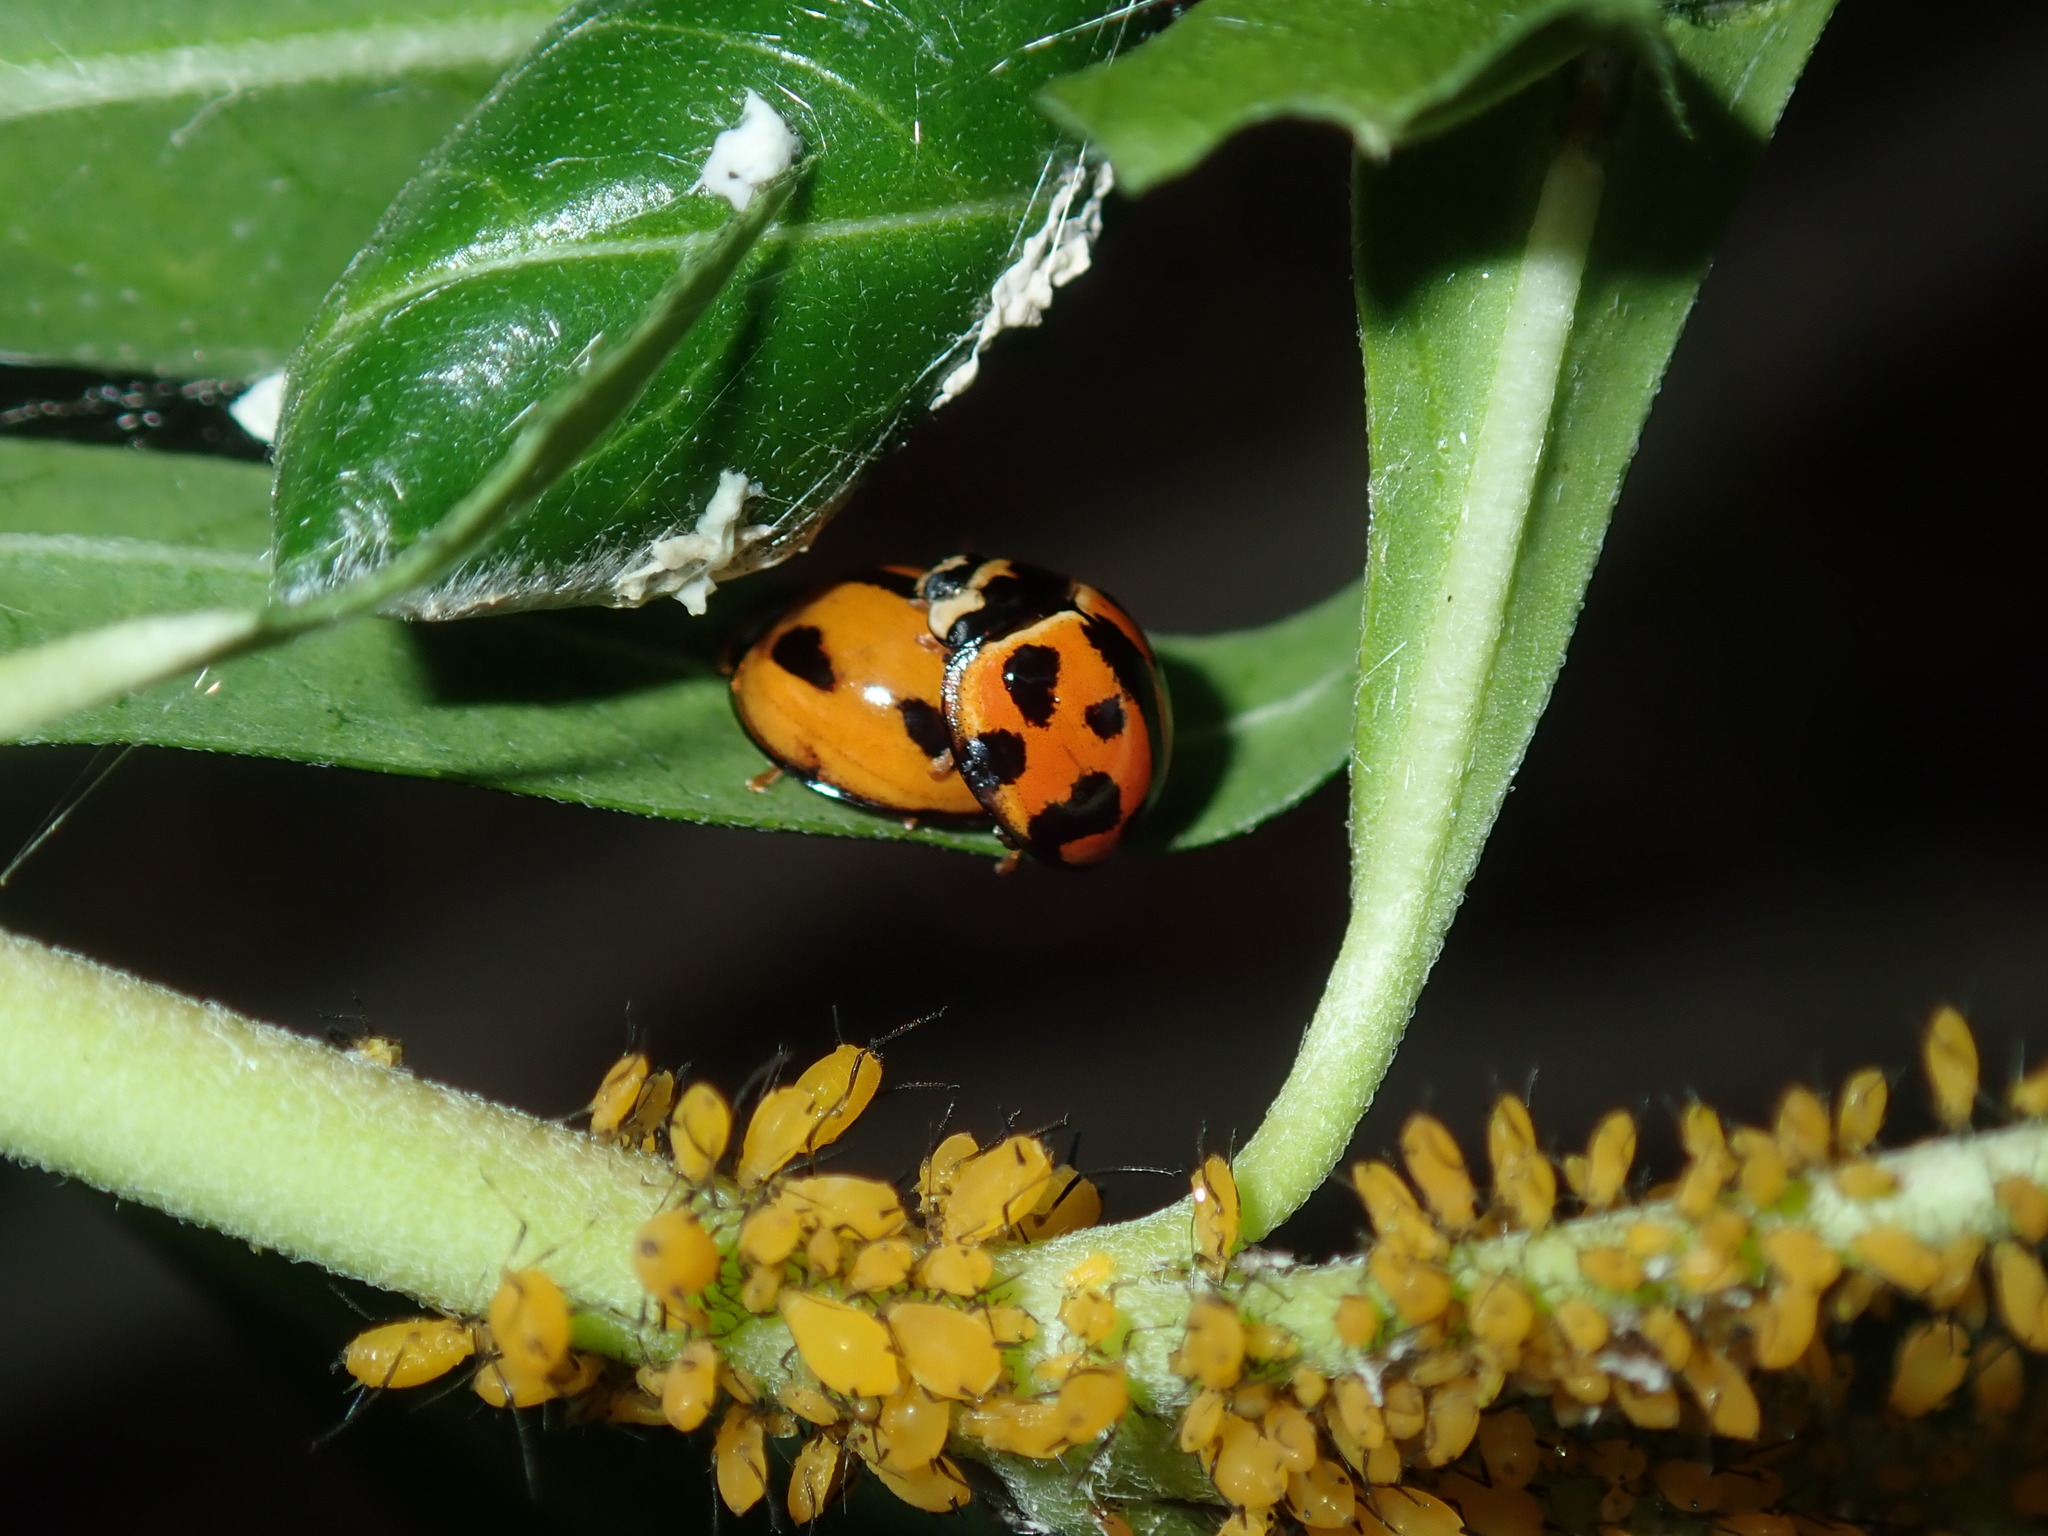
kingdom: Animalia
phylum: Arthropoda
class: Insecta
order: Coleoptera
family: Coccinellidae
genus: Coelophora
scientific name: Coelophora inaequalis
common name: Common australian lady beetle
